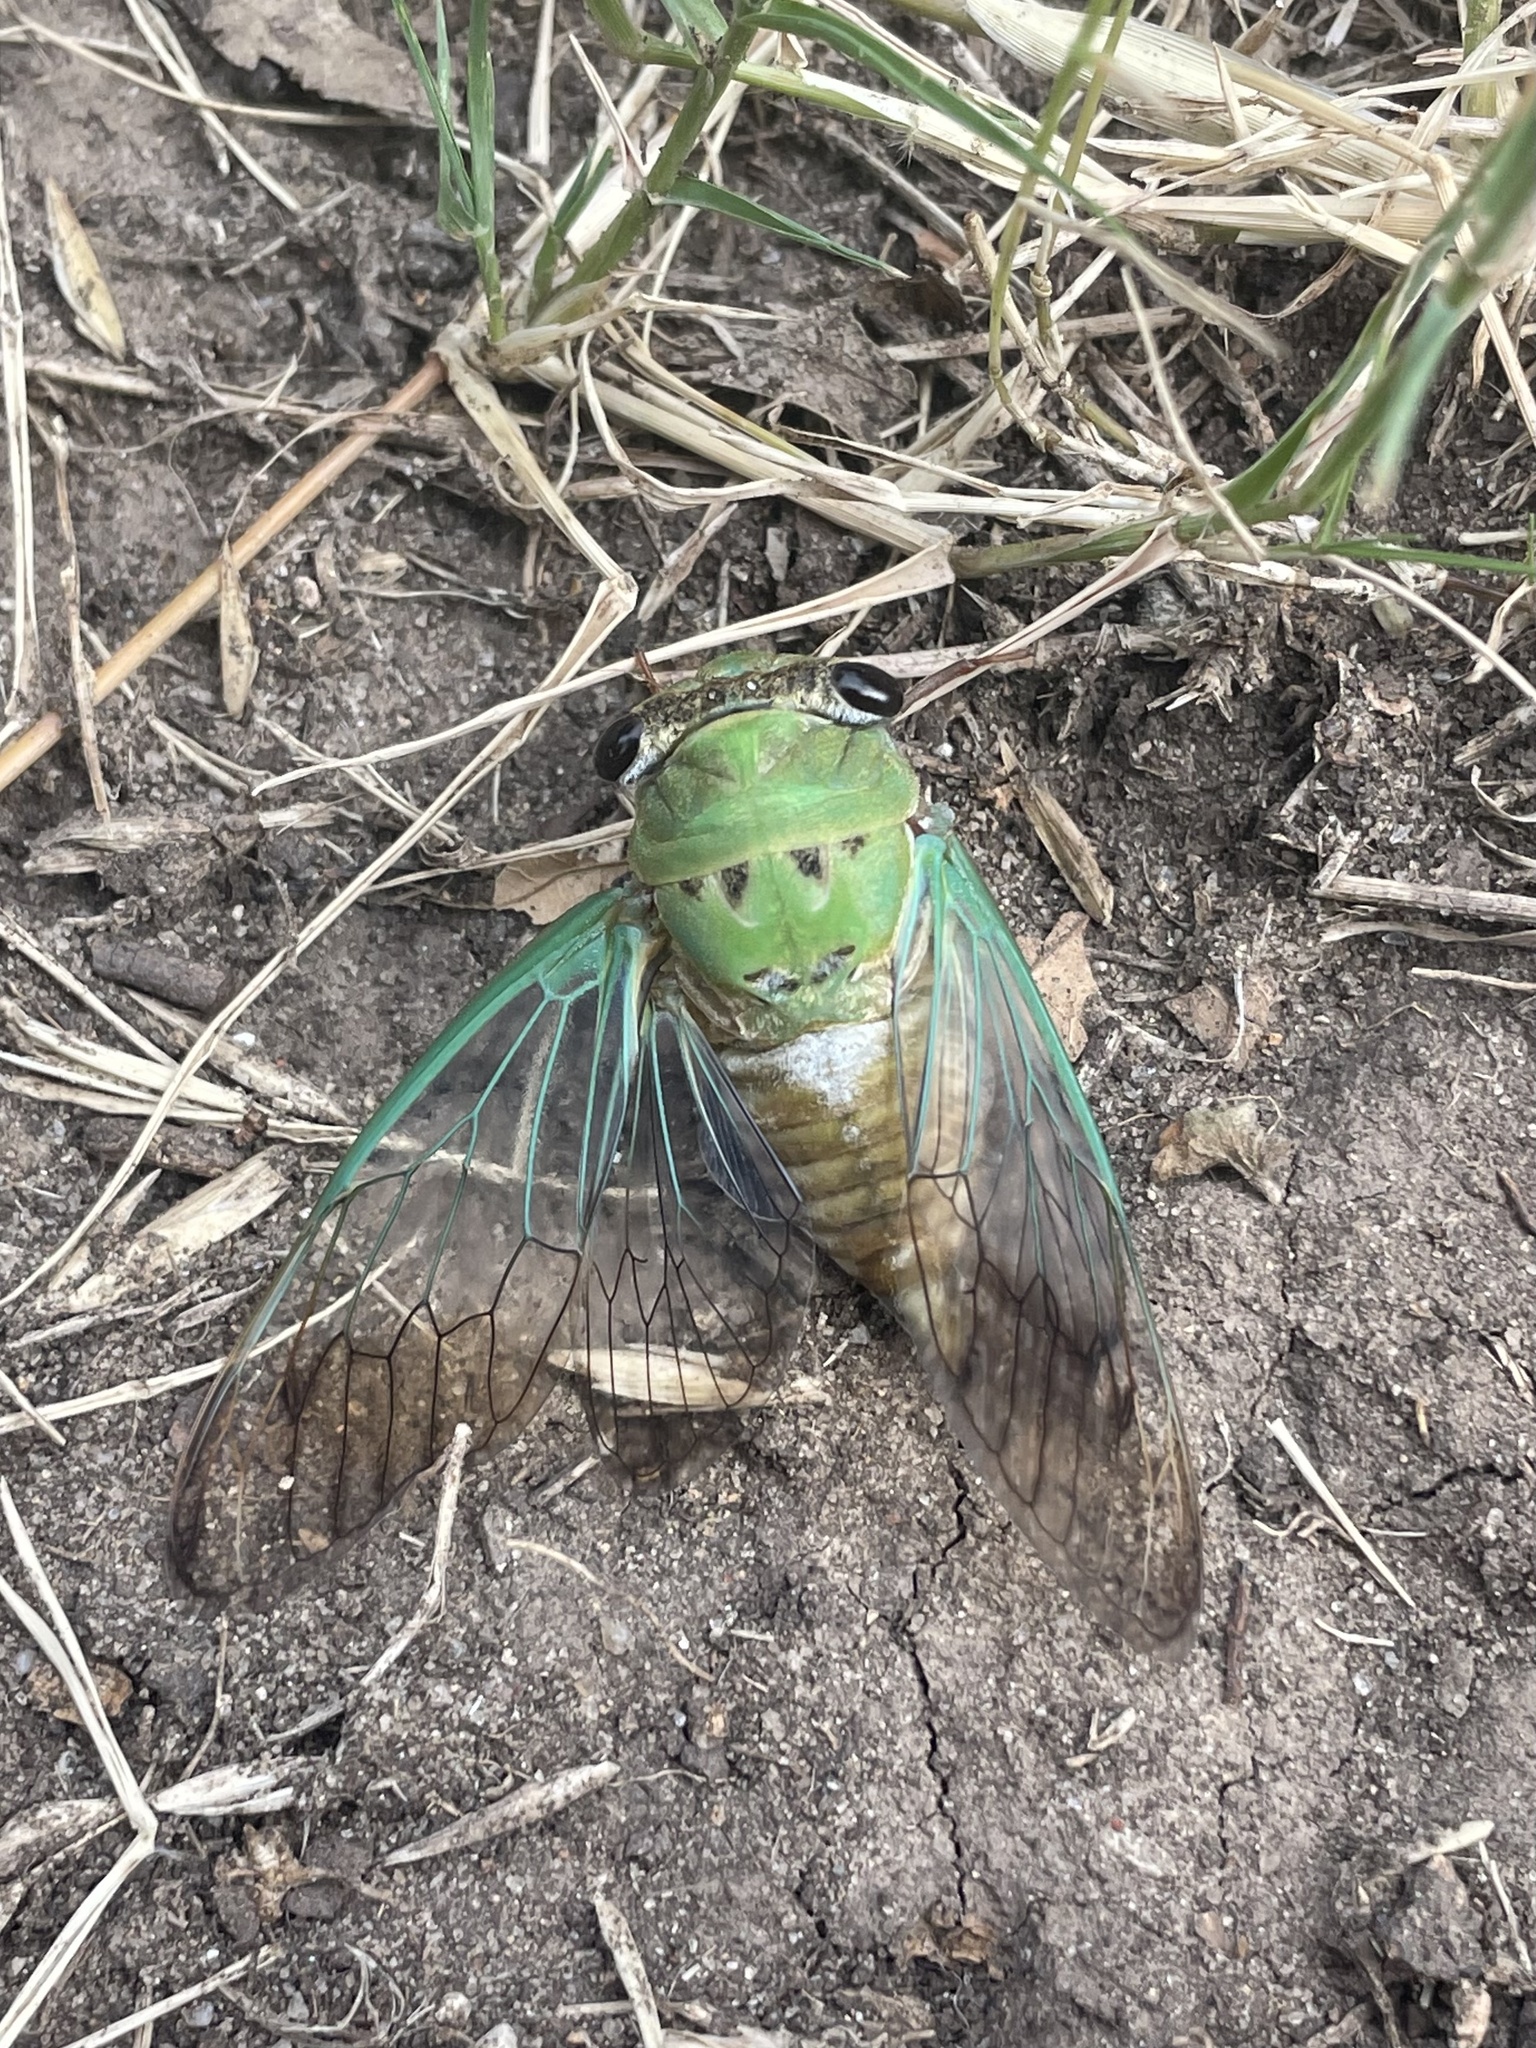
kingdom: Animalia
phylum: Arthropoda
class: Insecta
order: Hemiptera
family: Cicadidae
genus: Neotibicen
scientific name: Neotibicen superbus
